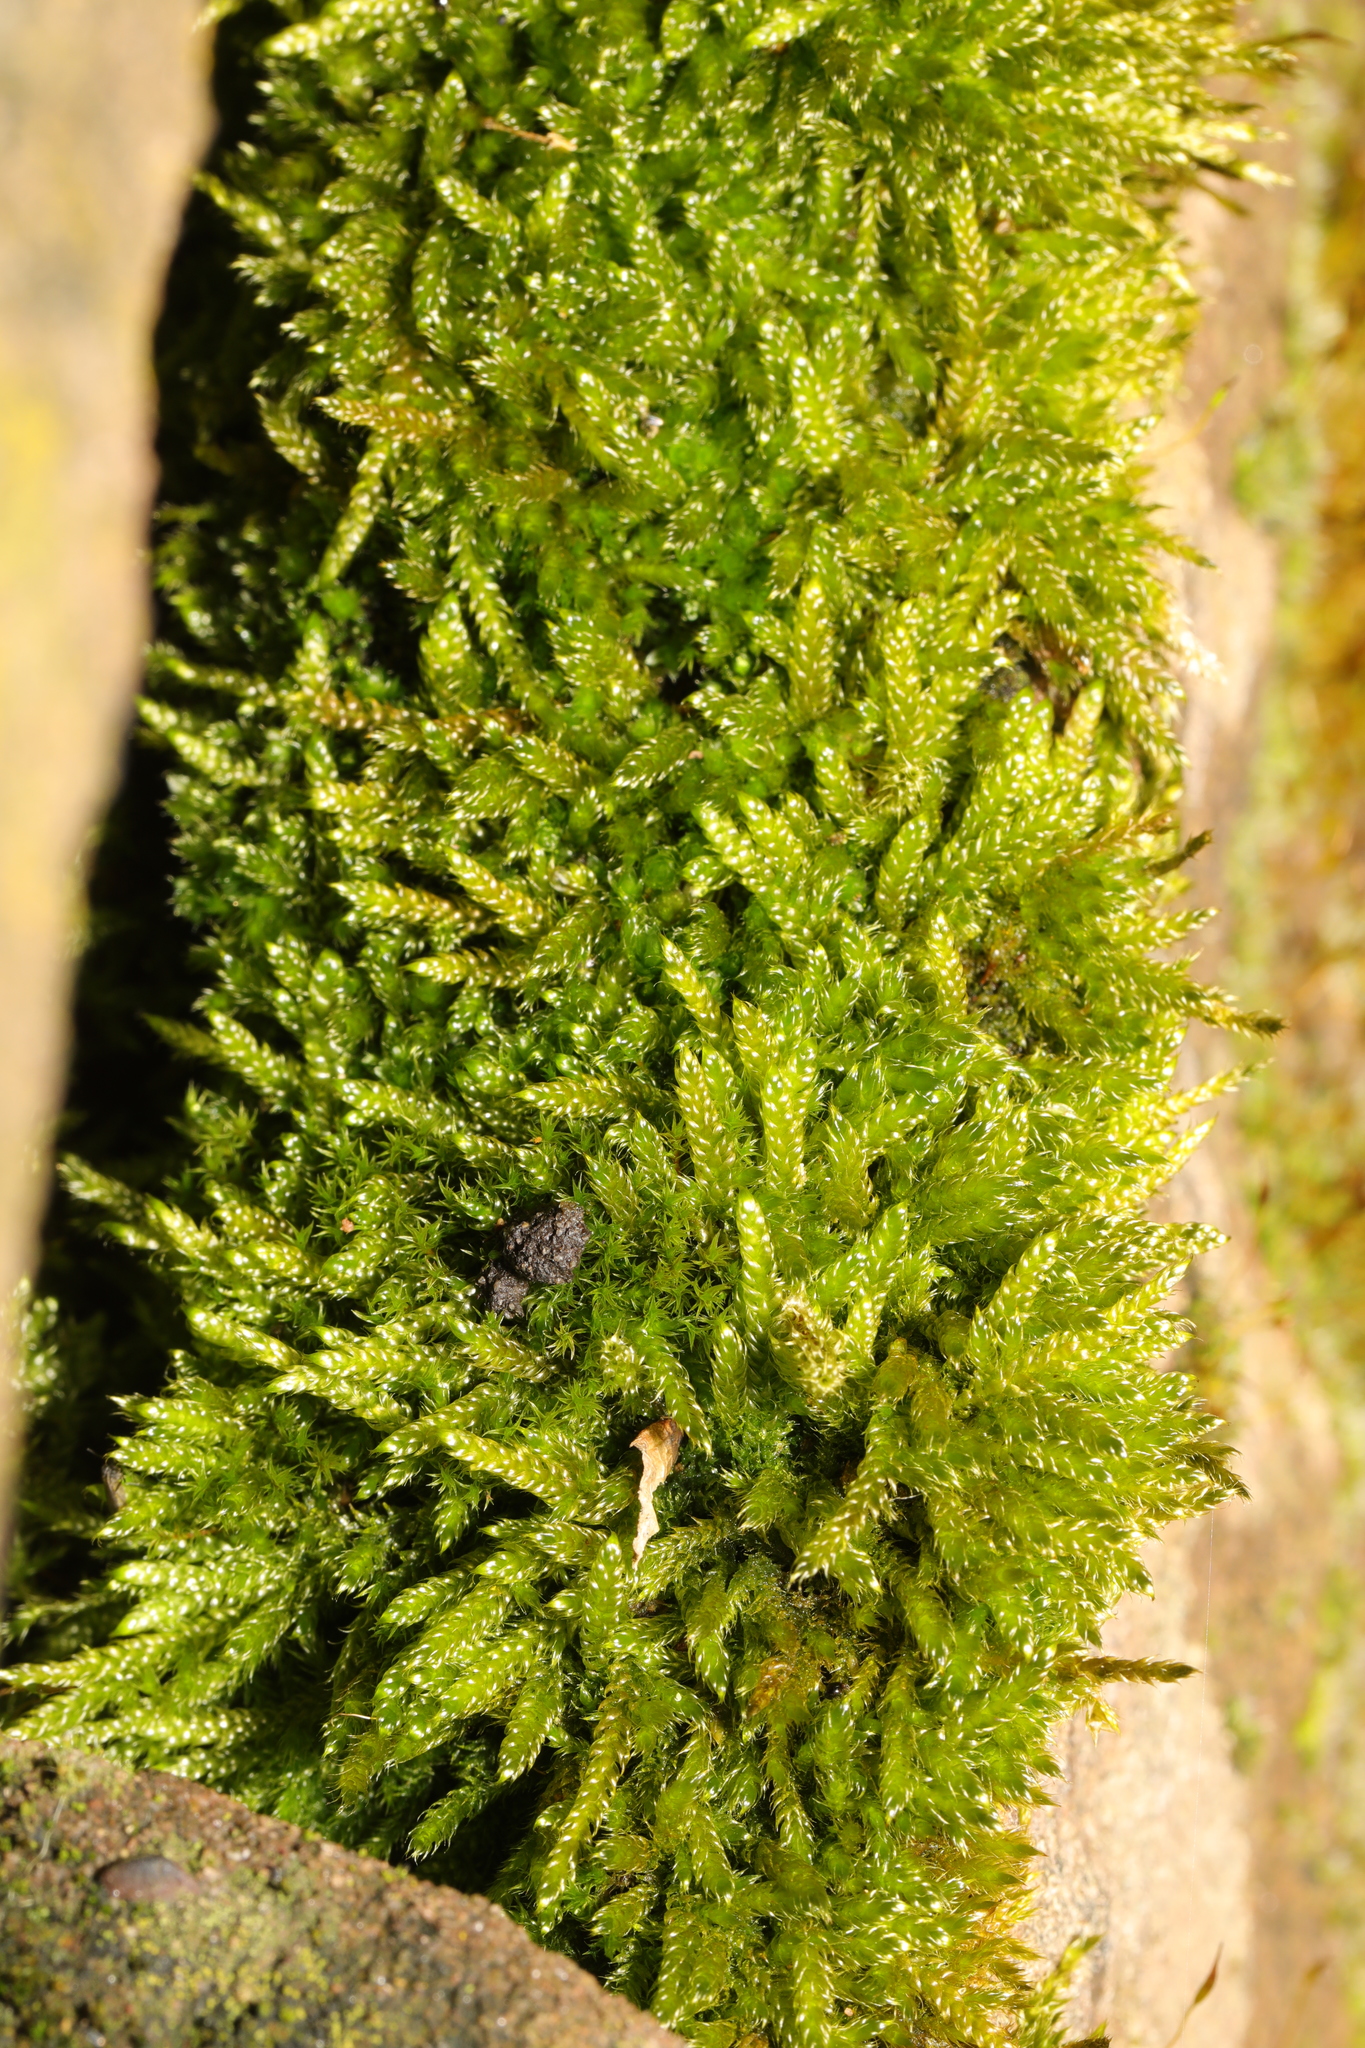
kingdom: Plantae
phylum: Bryophyta
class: Bryopsida
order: Hypnales
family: Hypnaceae
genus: Hypnum
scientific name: Hypnum cupressiforme
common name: Cypress-leaved plait-moss
